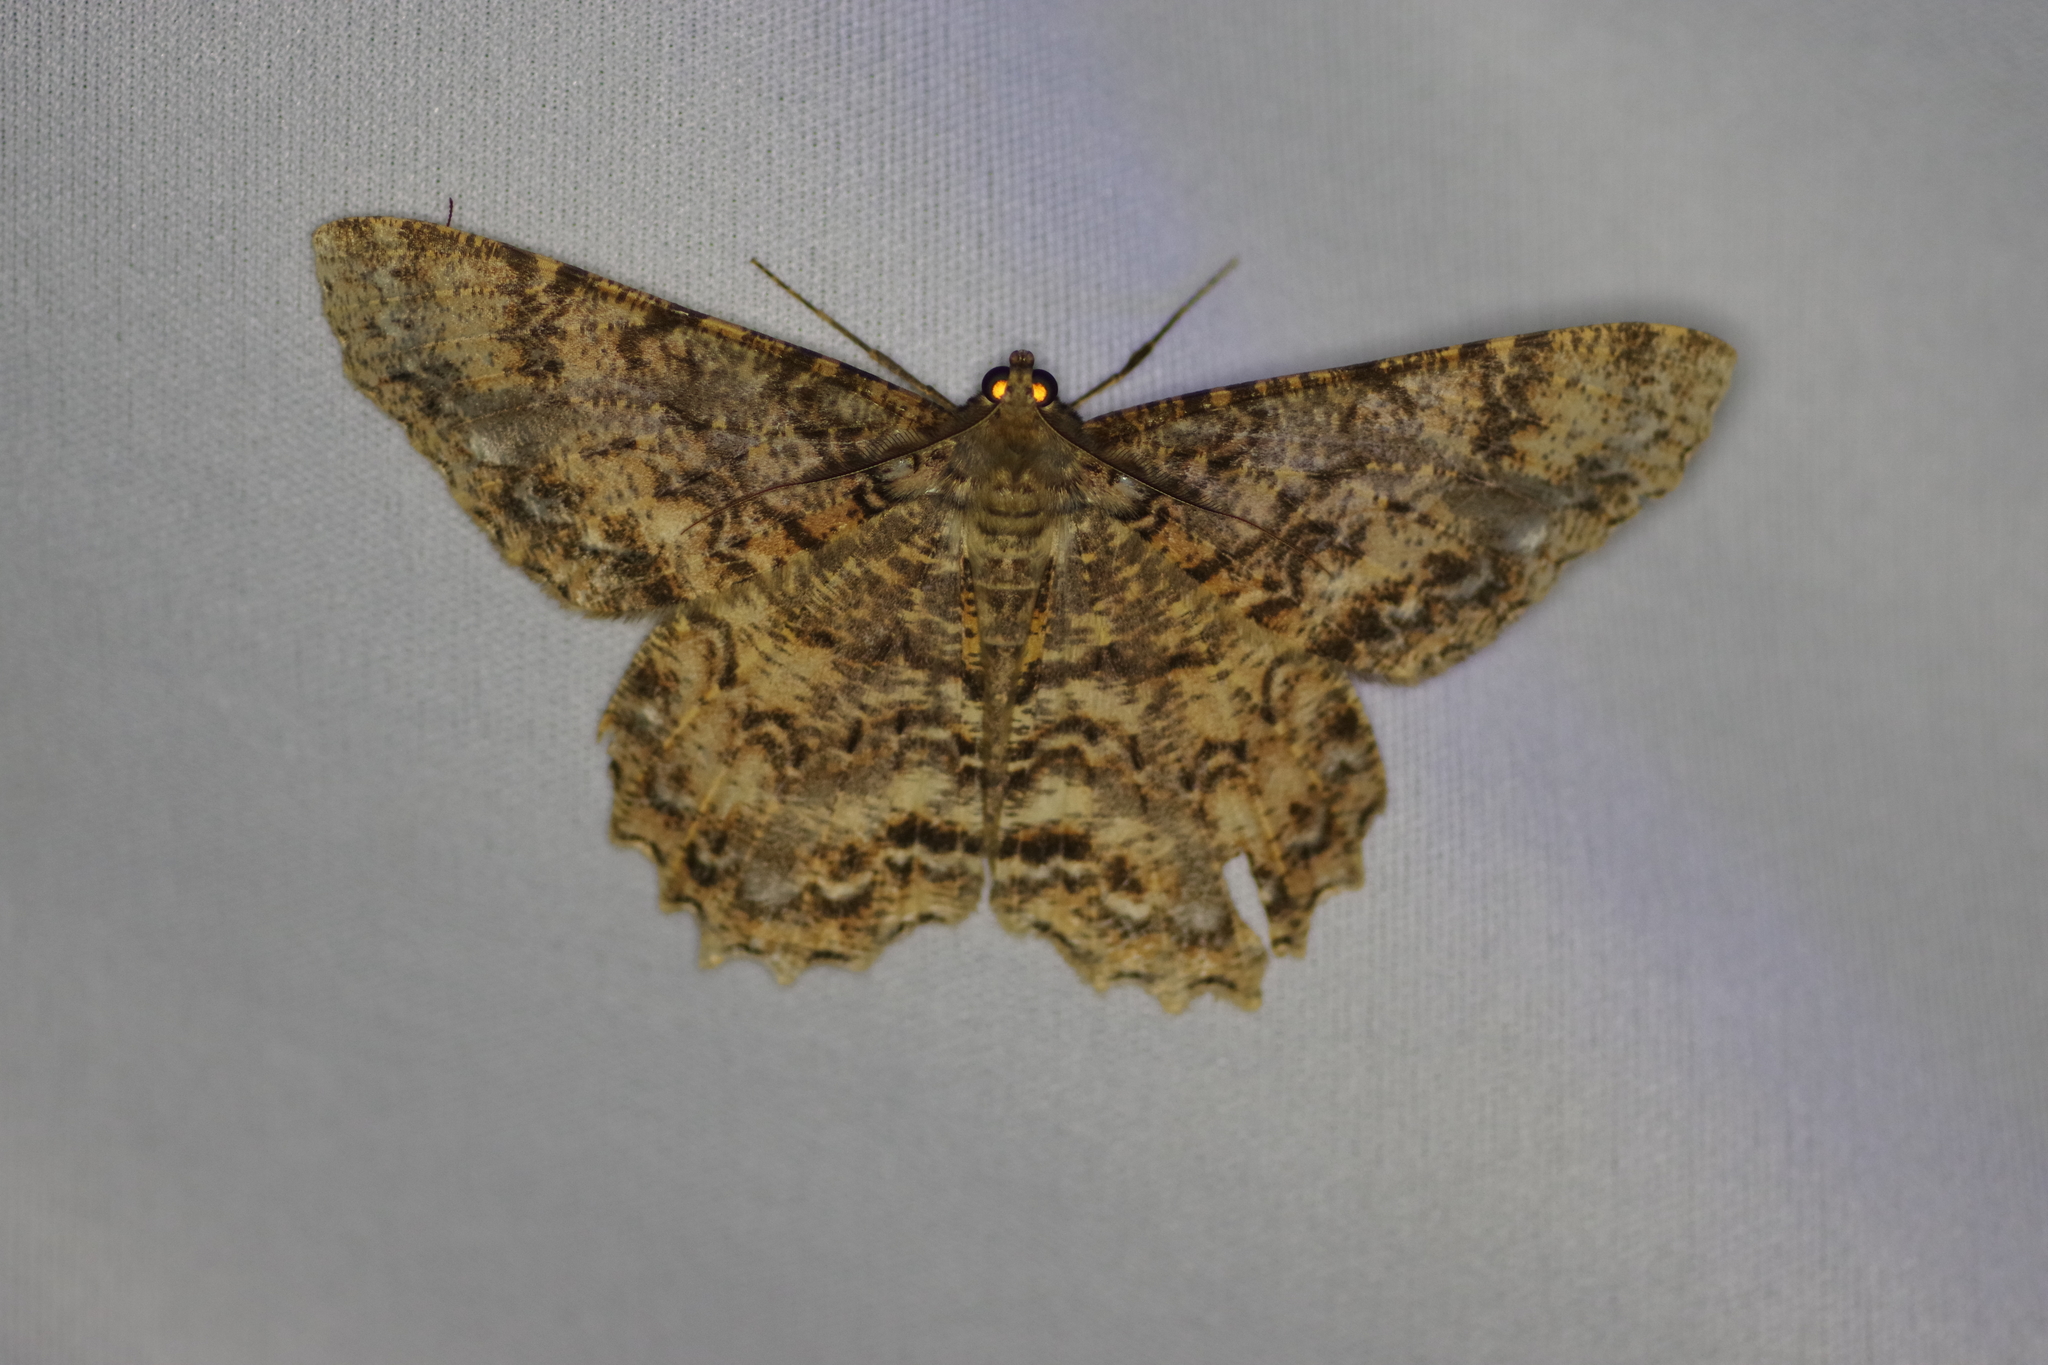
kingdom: Animalia
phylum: Arthropoda
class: Insecta
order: Lepidoptera
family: Geometridae
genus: Epimecis
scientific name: Epimecis conjugaria
